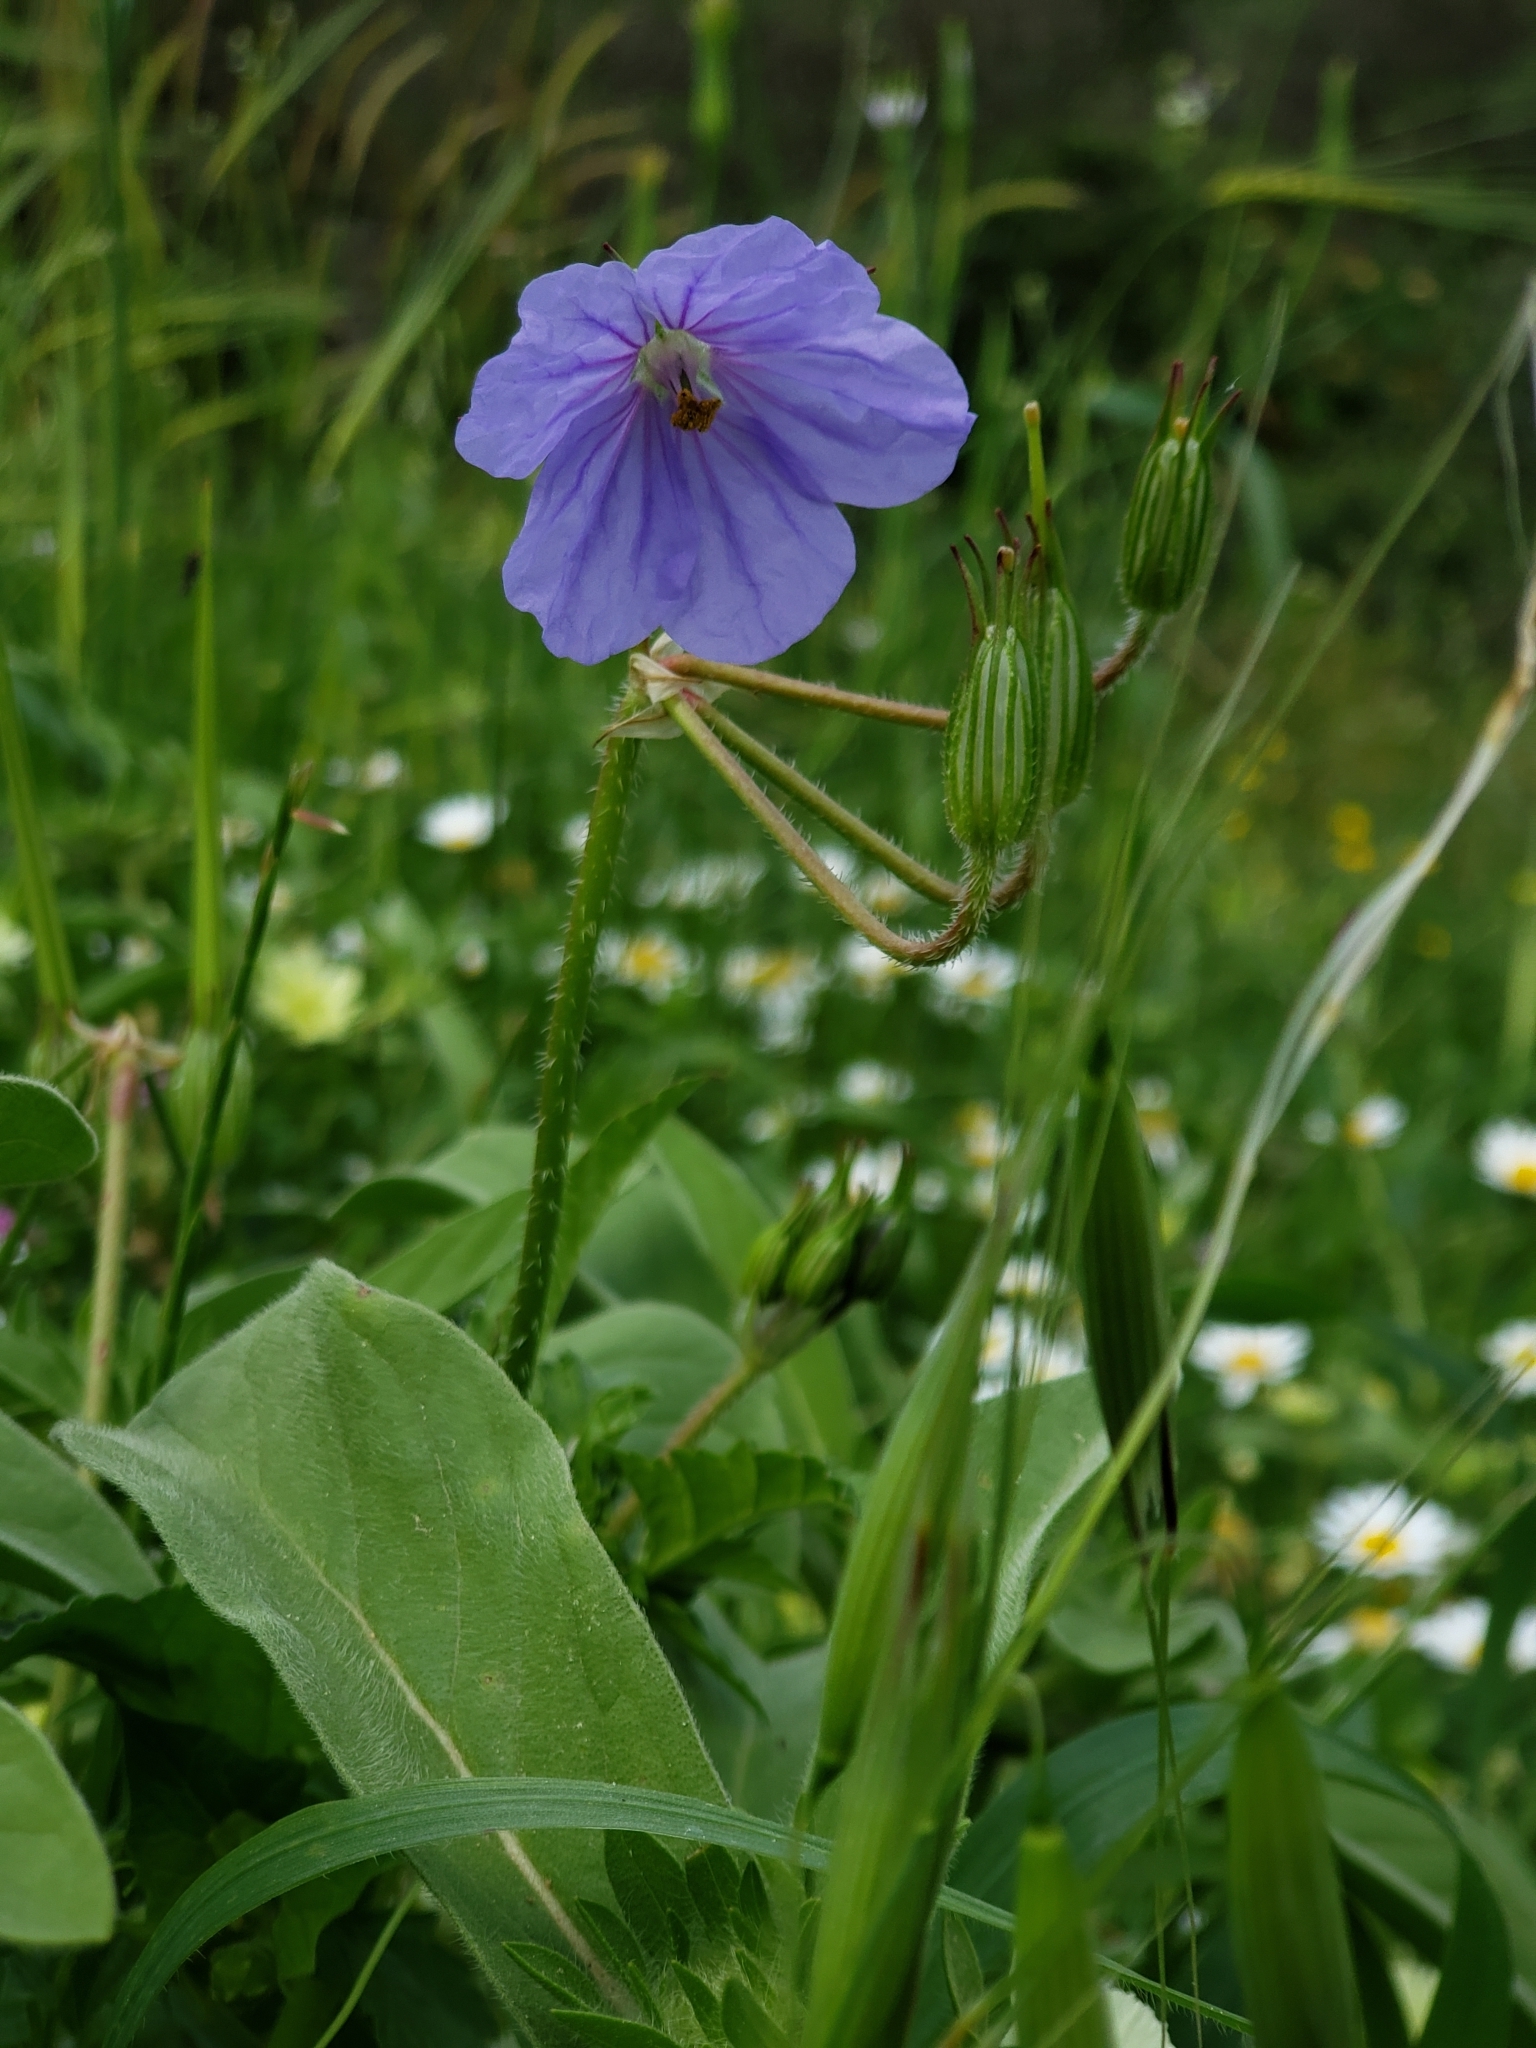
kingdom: Plantae
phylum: Tracheophyta
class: Magnoliopsida
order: Geraniales
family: Geraniaceae
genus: Erodium
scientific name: Erodium gruinum
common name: Iranian stork's bill
